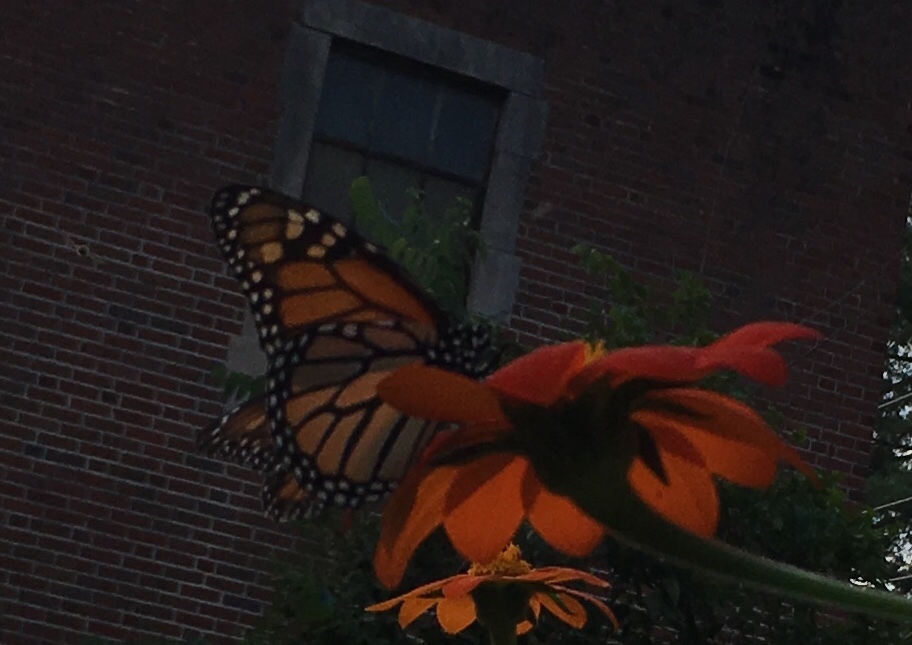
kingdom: Animalia
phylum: Arthropoda
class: Insecta
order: Lepidoptera
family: Nymphalidae
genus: Danaus
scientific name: Danaus plexippus
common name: Monarch
